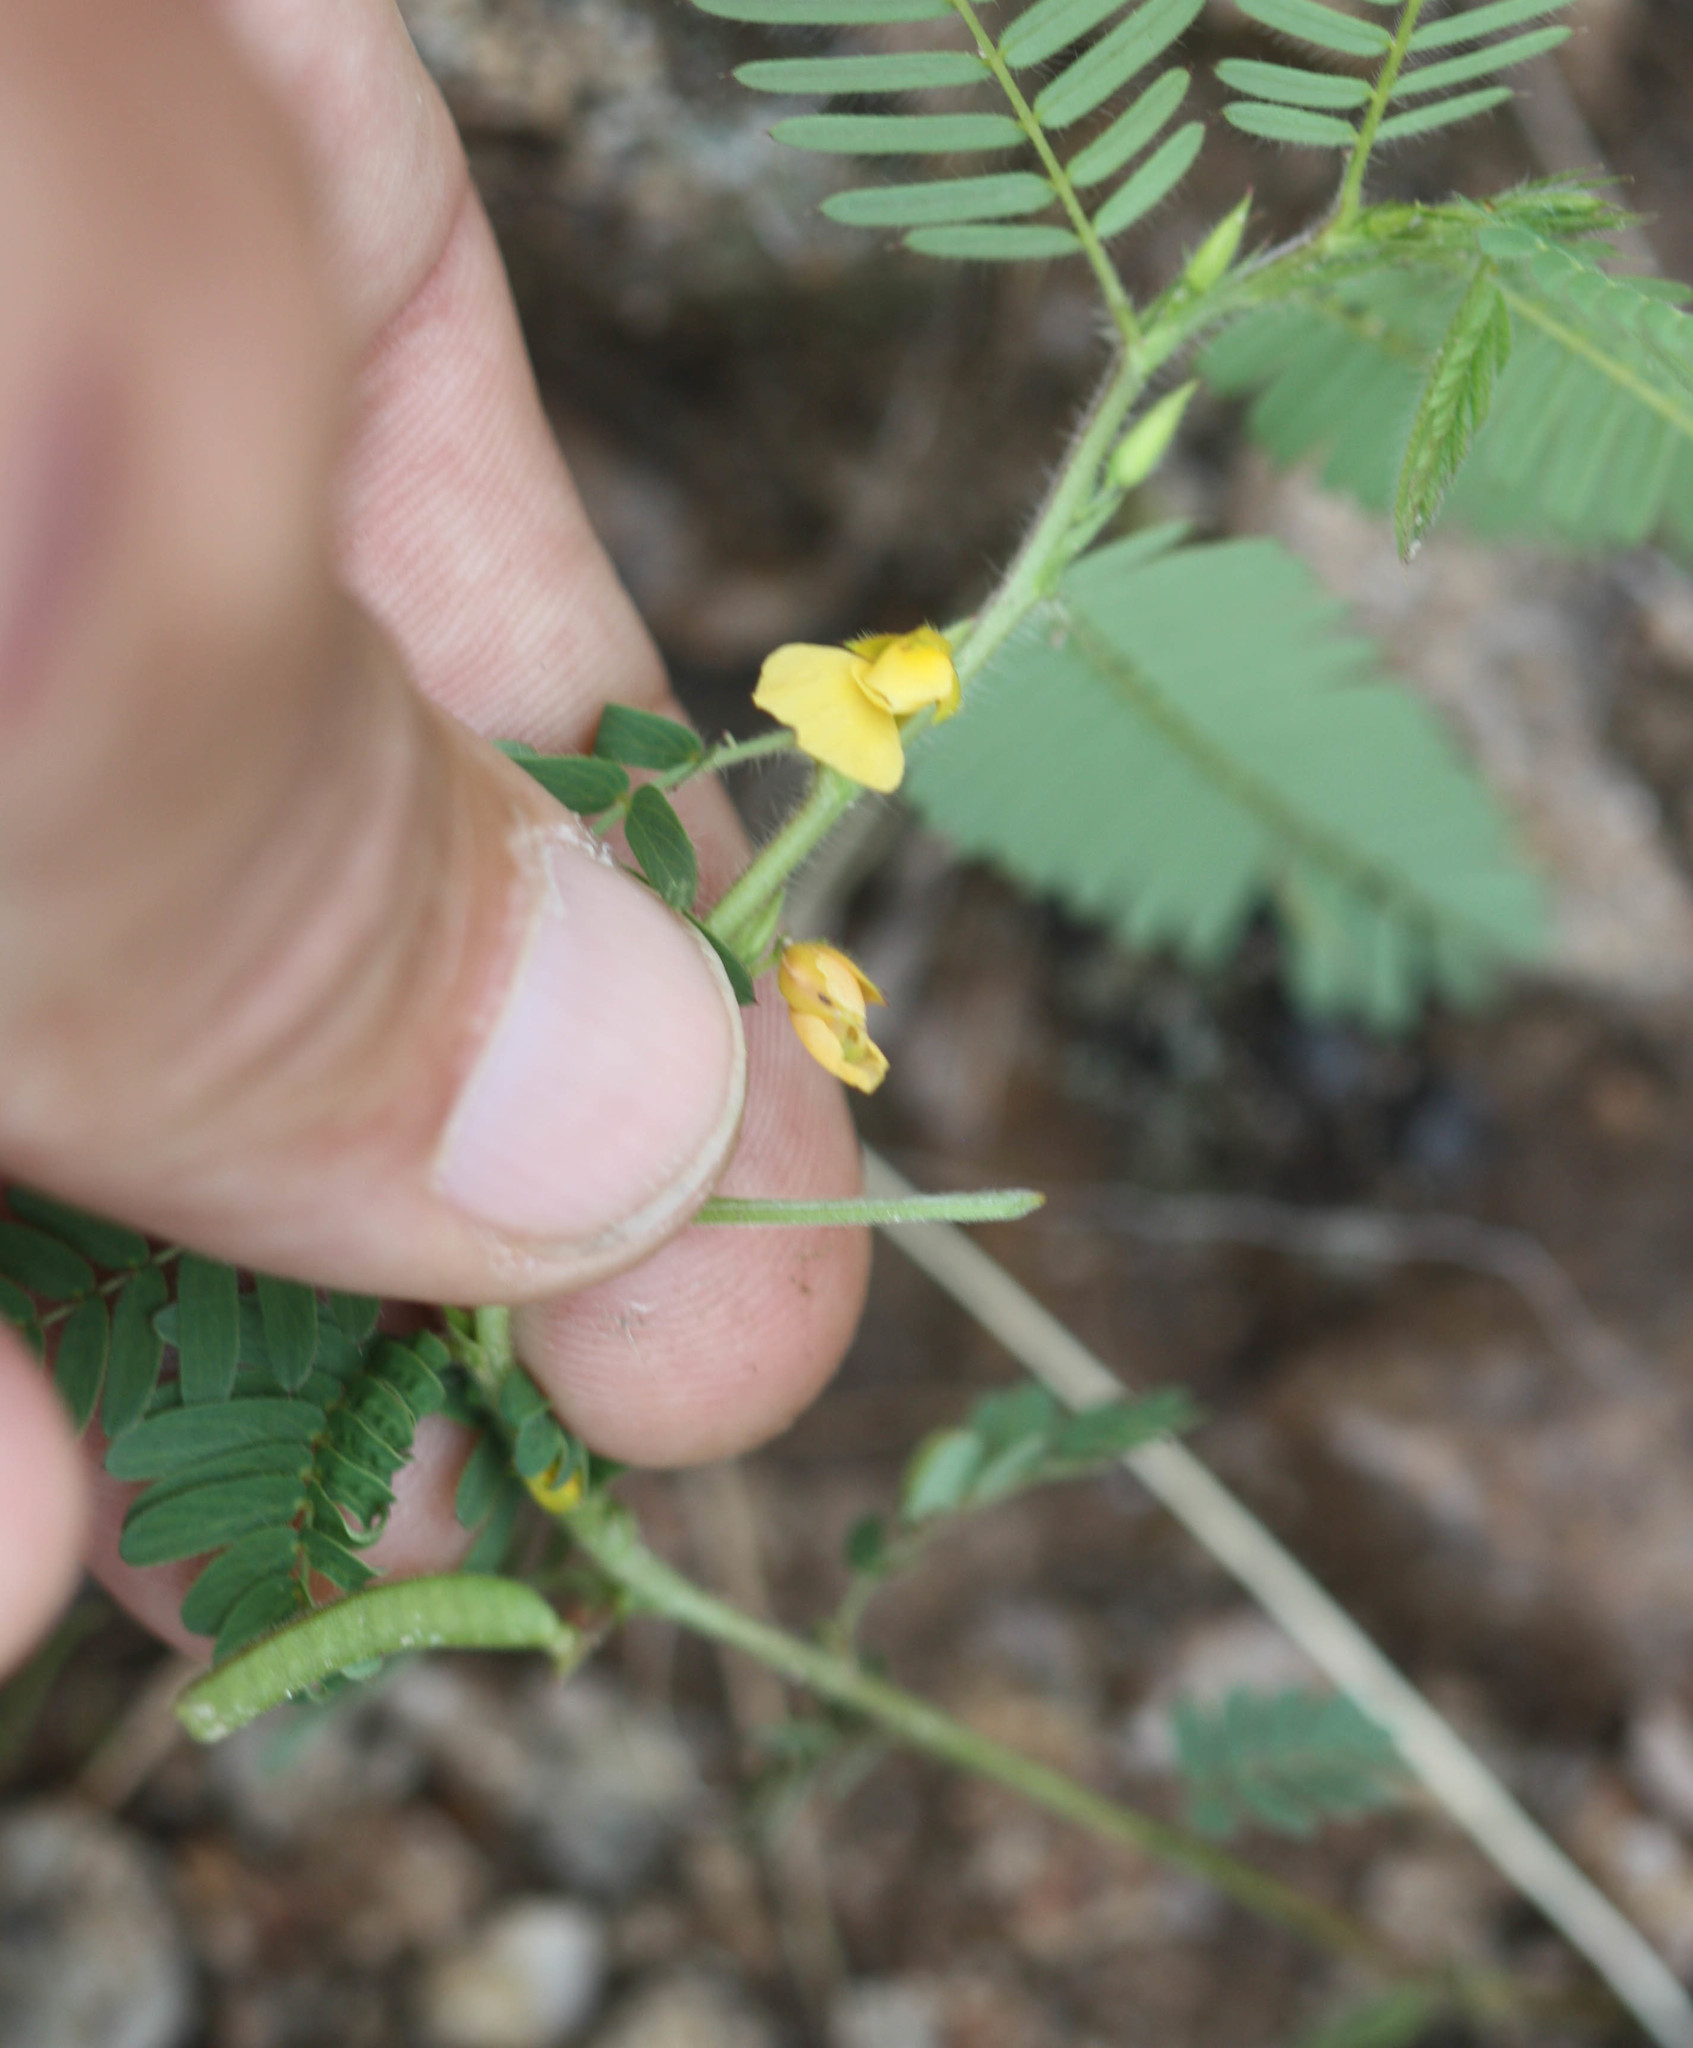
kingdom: Plantae
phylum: Tracheophyta
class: Magnoliopsida
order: Fabales
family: Fabaceae
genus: Chamaecrista
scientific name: Chamaecrista nictitans
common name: Sensitive cassia
